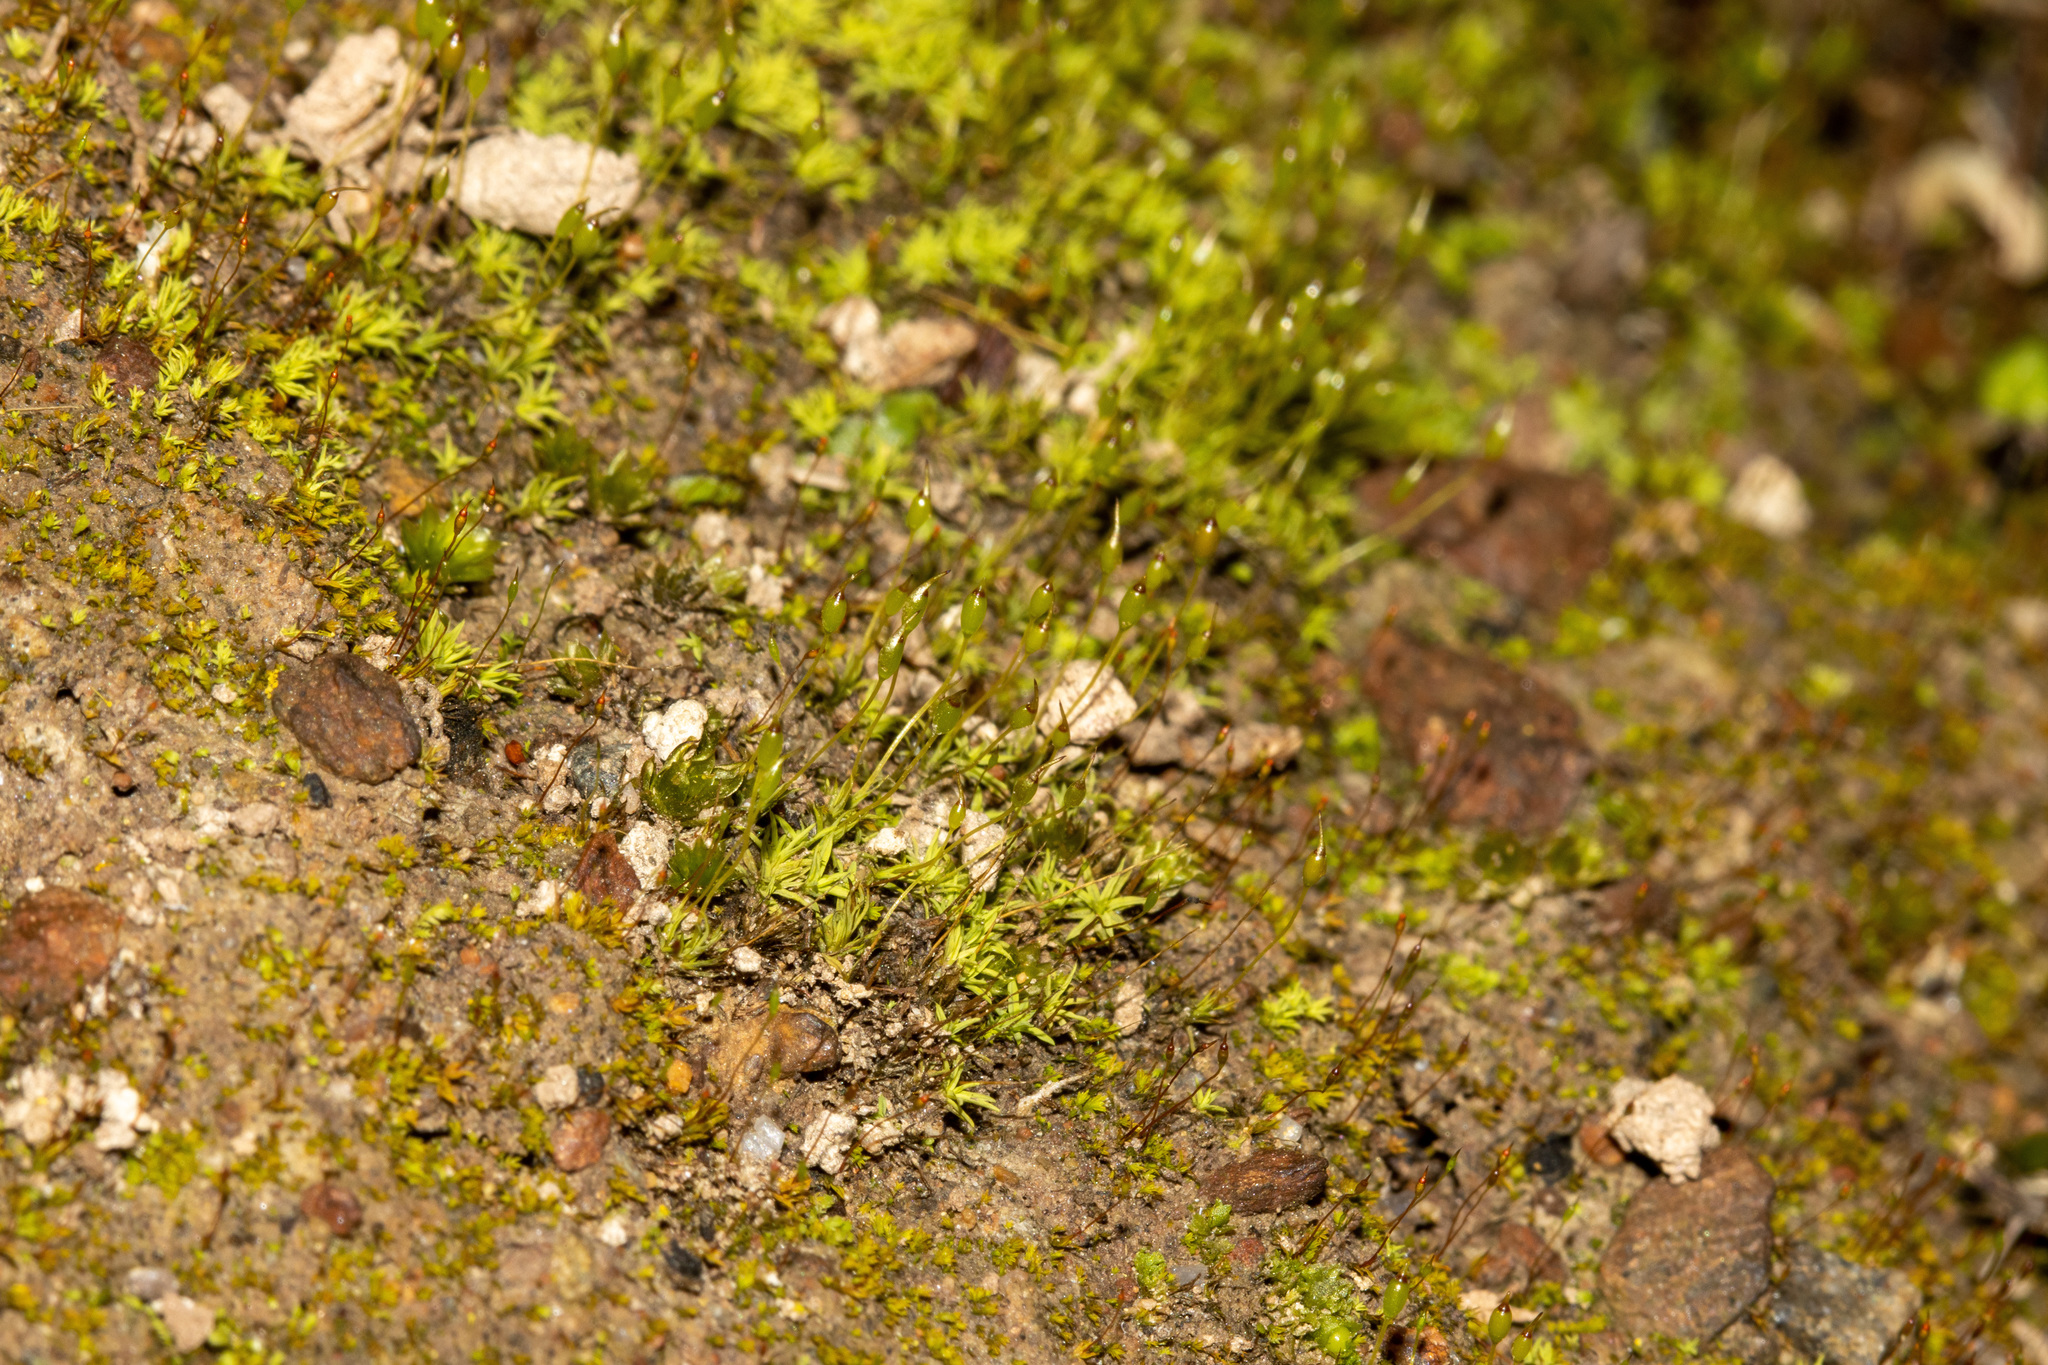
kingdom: Plantae
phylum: Bryophyta
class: Bryopsida
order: Pottiales
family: Pottiaceae
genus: Weissia
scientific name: Weissia controversa
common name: Green-tufted stubble moss
